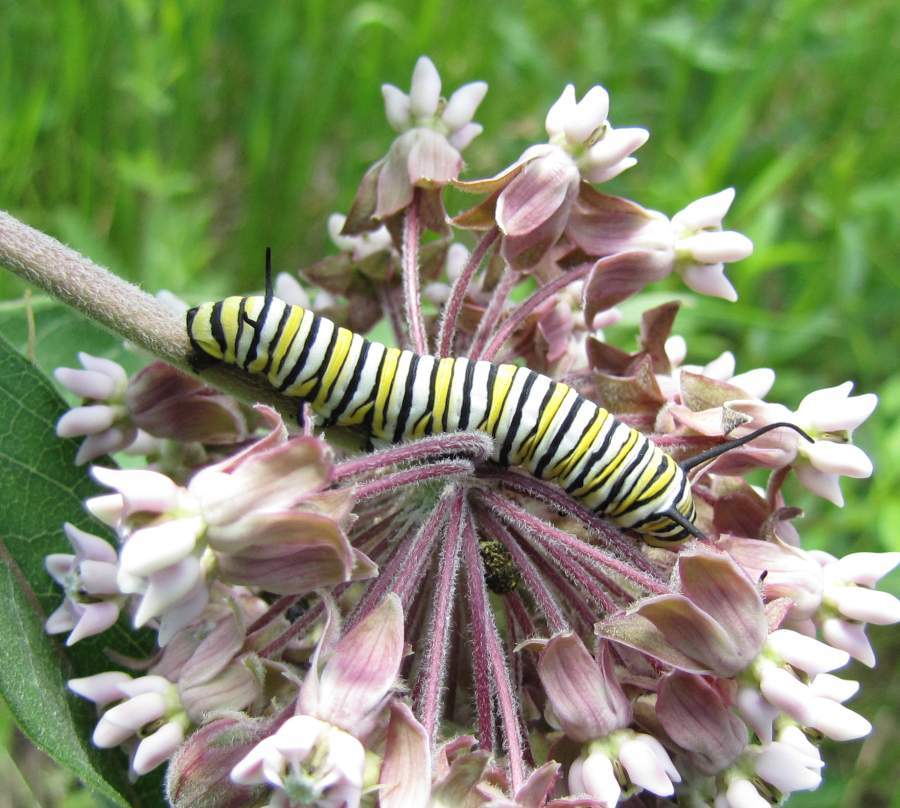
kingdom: Animalia
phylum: Arthropoda
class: Insecta
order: Lepidoptera
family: Nymphalidae
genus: Danaus
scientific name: Danaus plexippus
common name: Monarch
